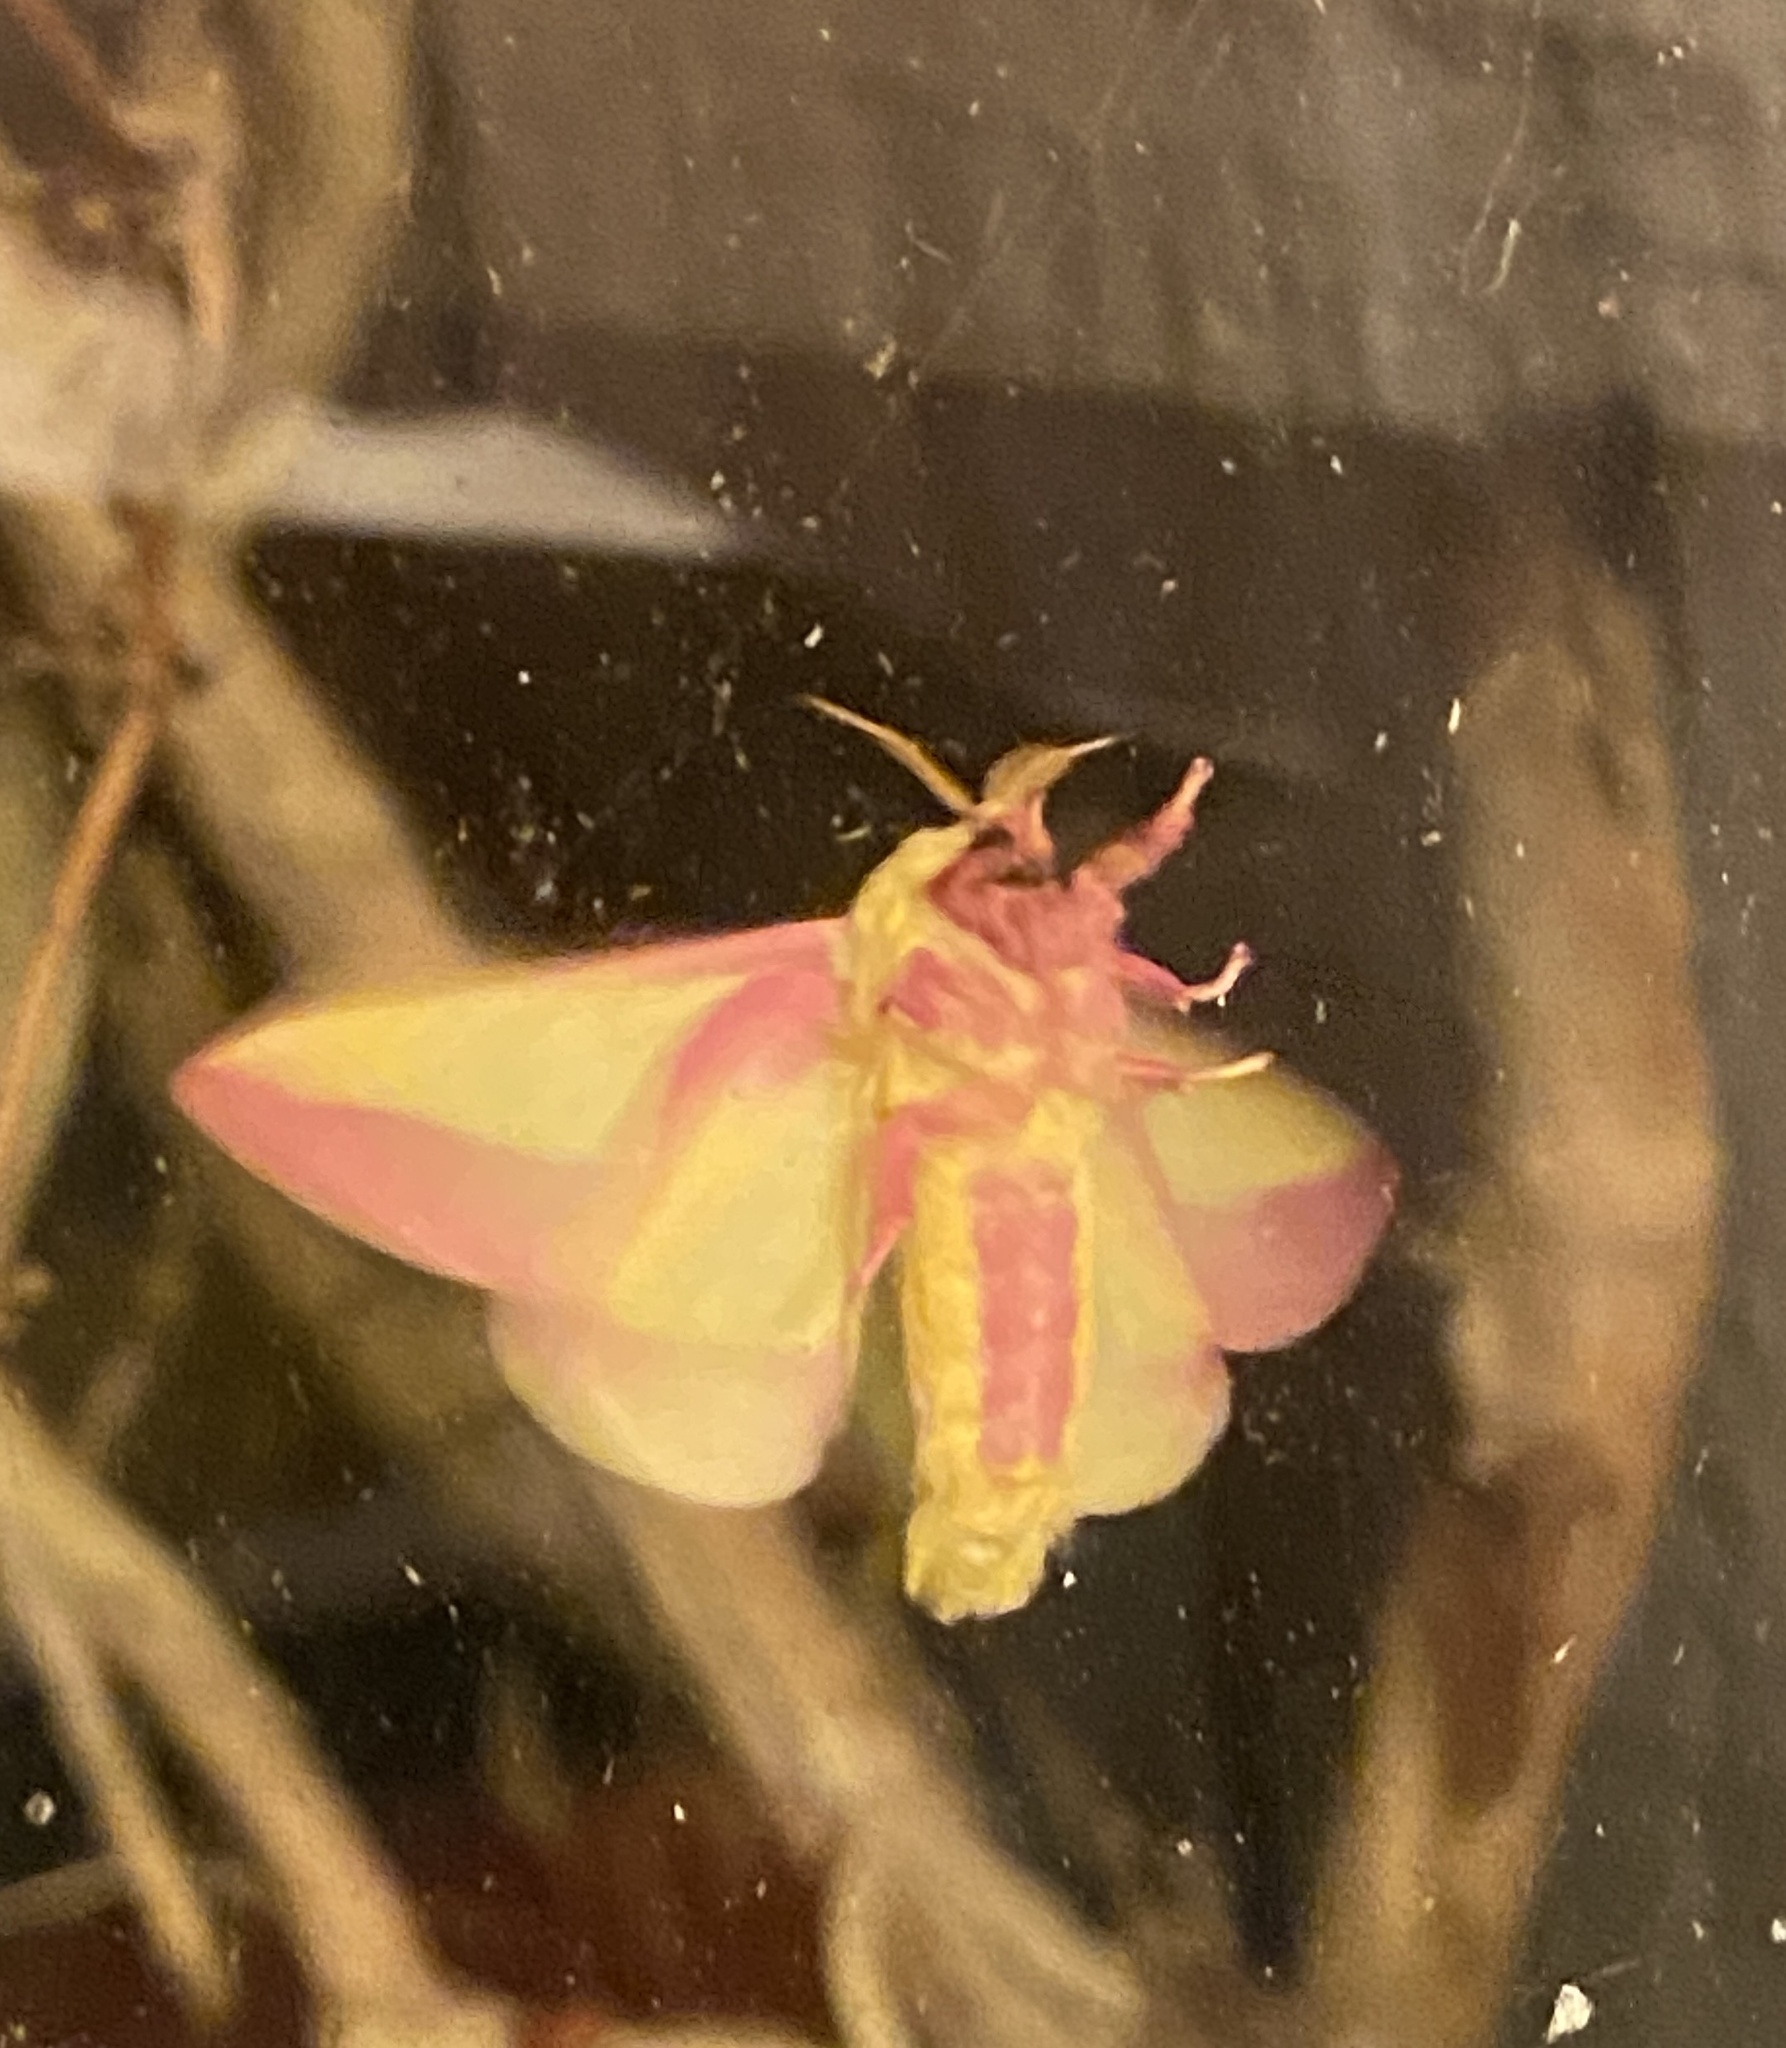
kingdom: Animalia
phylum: Arthropoda
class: Insecta
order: Lepidoptera
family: Saturniidae
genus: Dryocampa
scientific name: Dryocampa rubicunda
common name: Rosy maple moth
